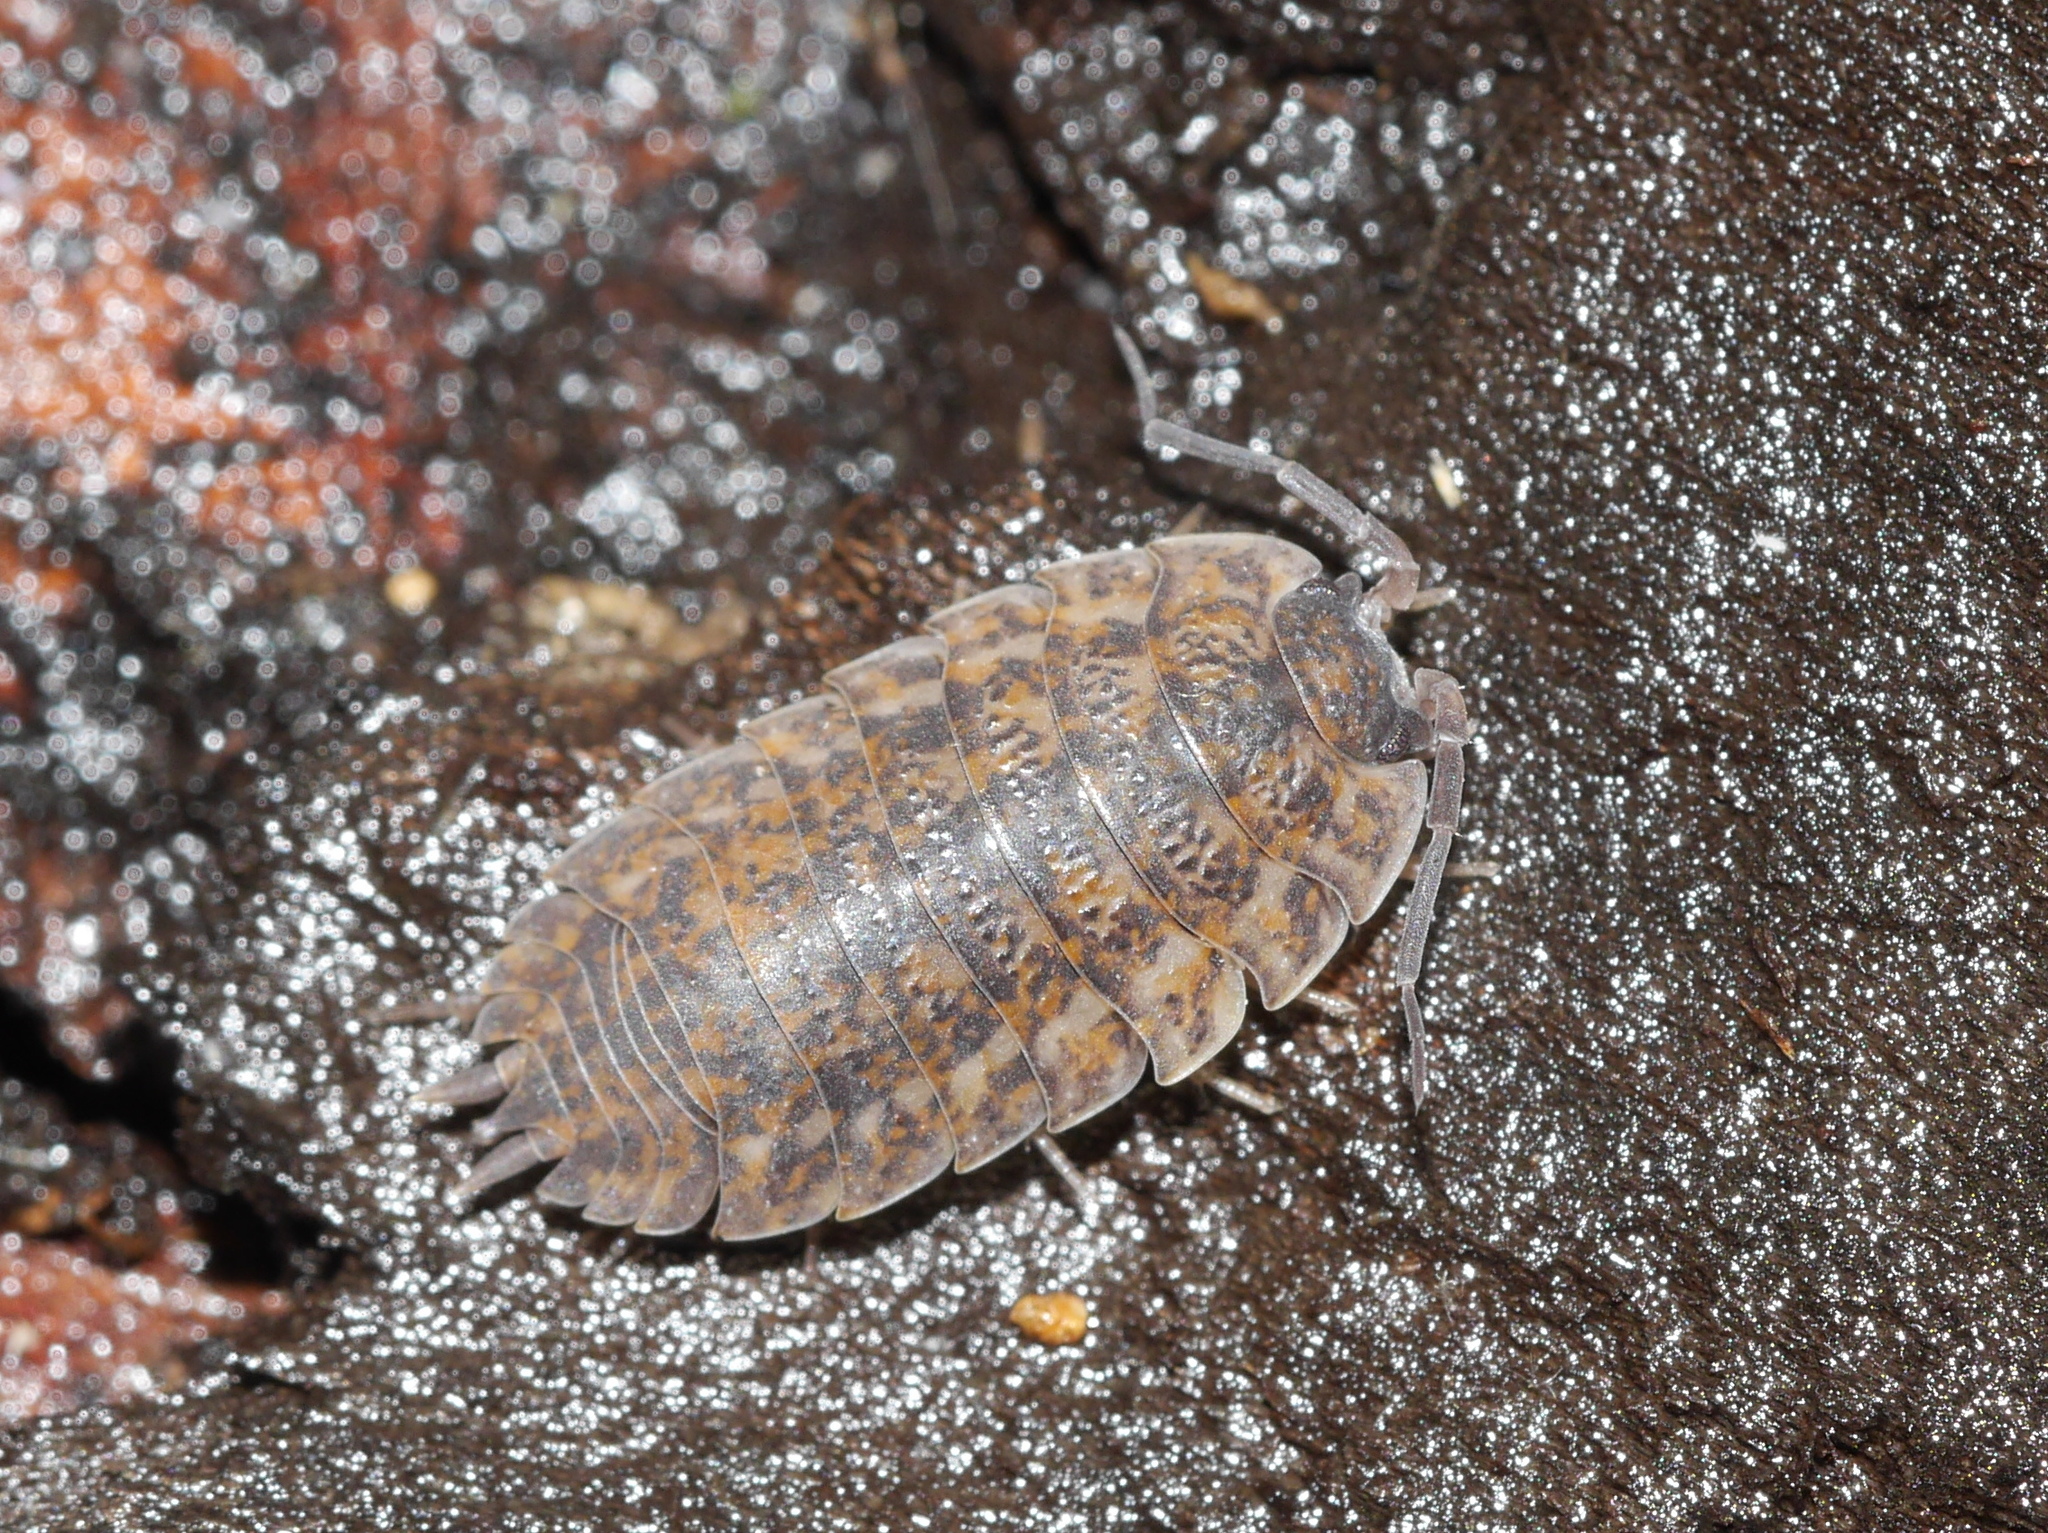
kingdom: Animalia
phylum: Arthropoda
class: Malacostraca
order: Isopoda
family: Trachelipodidae
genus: Trachelipus
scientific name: Trachelipus rathkii
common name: Isopod
